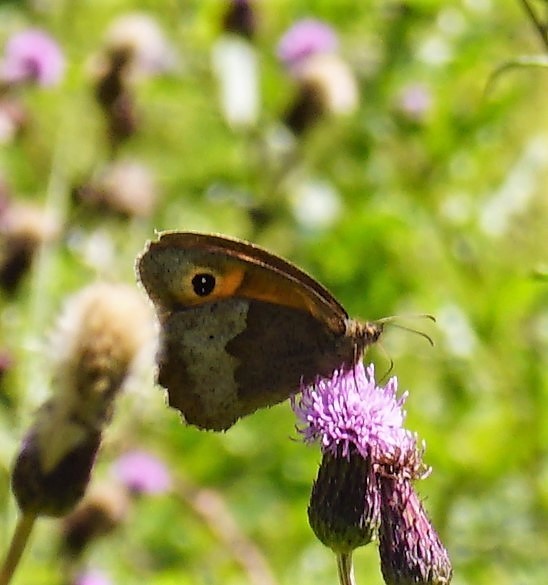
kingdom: Animalia
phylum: Arthropoda
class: Insecta
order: Lepidoptera
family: Nymphalidae
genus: Maniola
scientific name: Maniola jurtina
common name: Meadow brown
